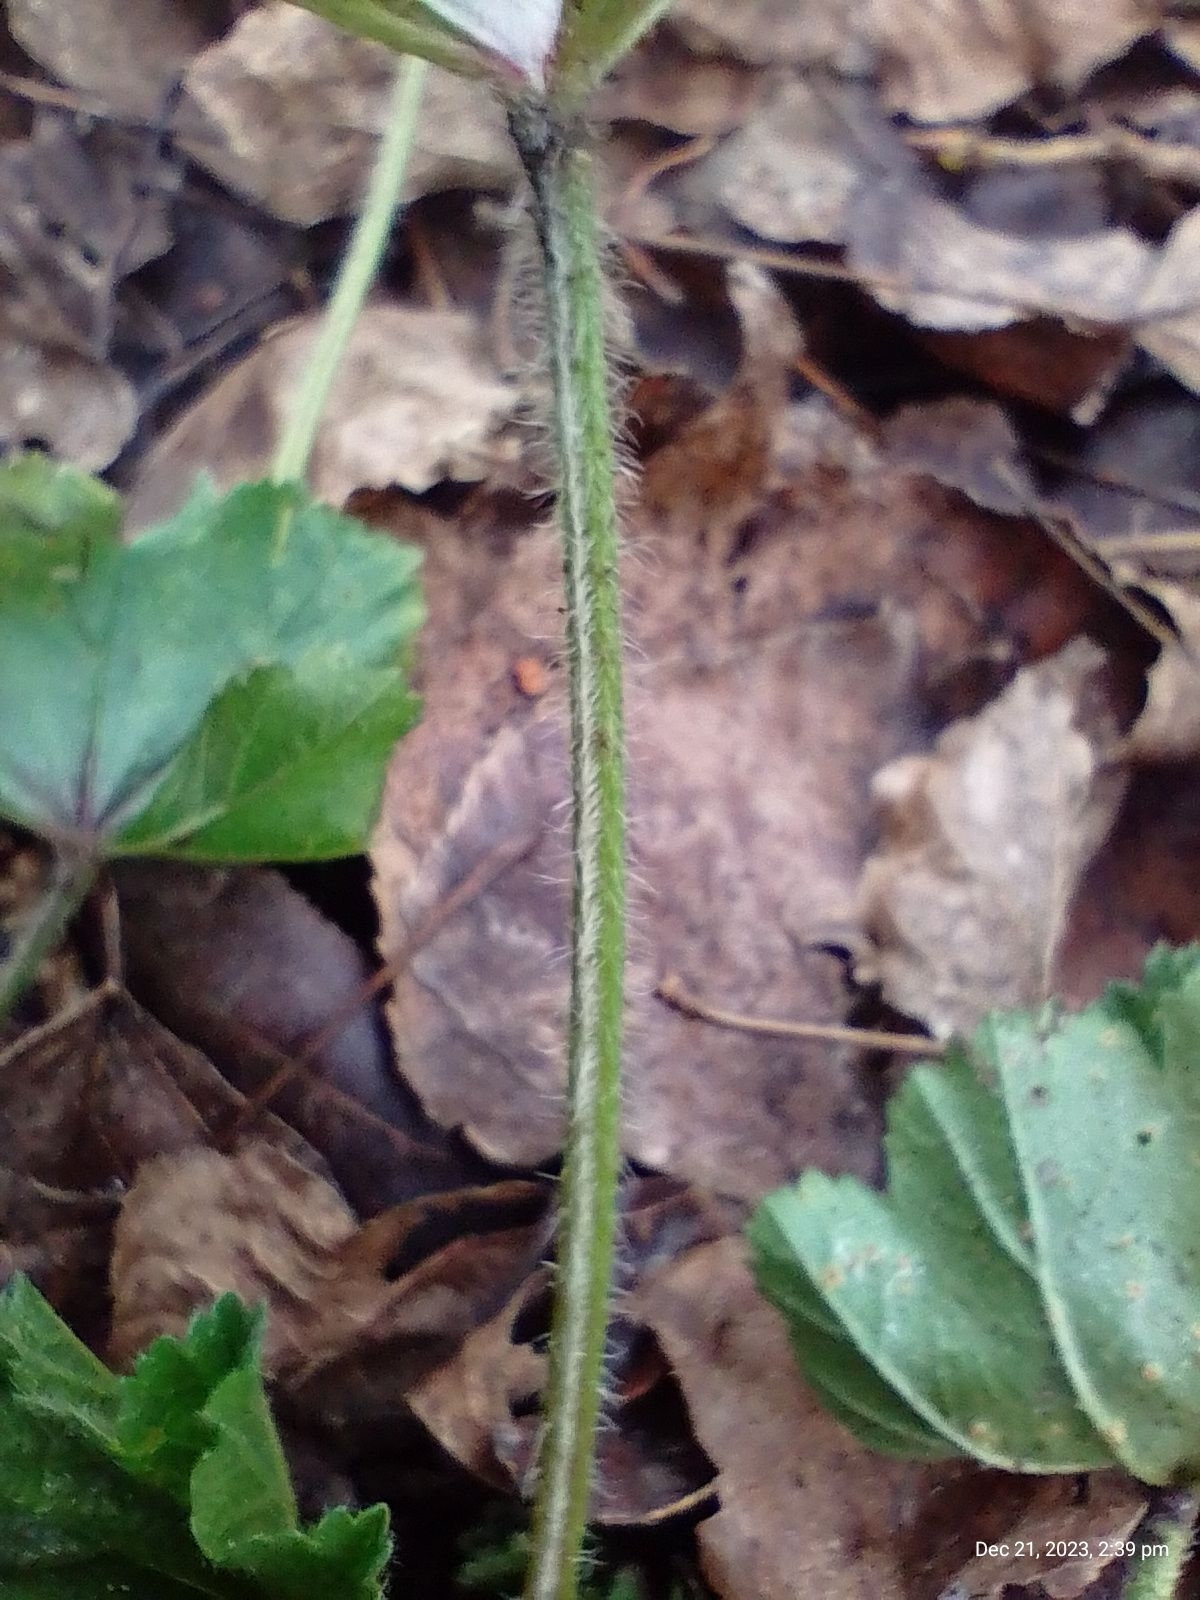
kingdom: Plantae
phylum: Tracheophyta
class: Magnoliopsida
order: Malvales
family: Malvaceae
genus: Malva
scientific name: Malva sylvestris
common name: Common mallow
